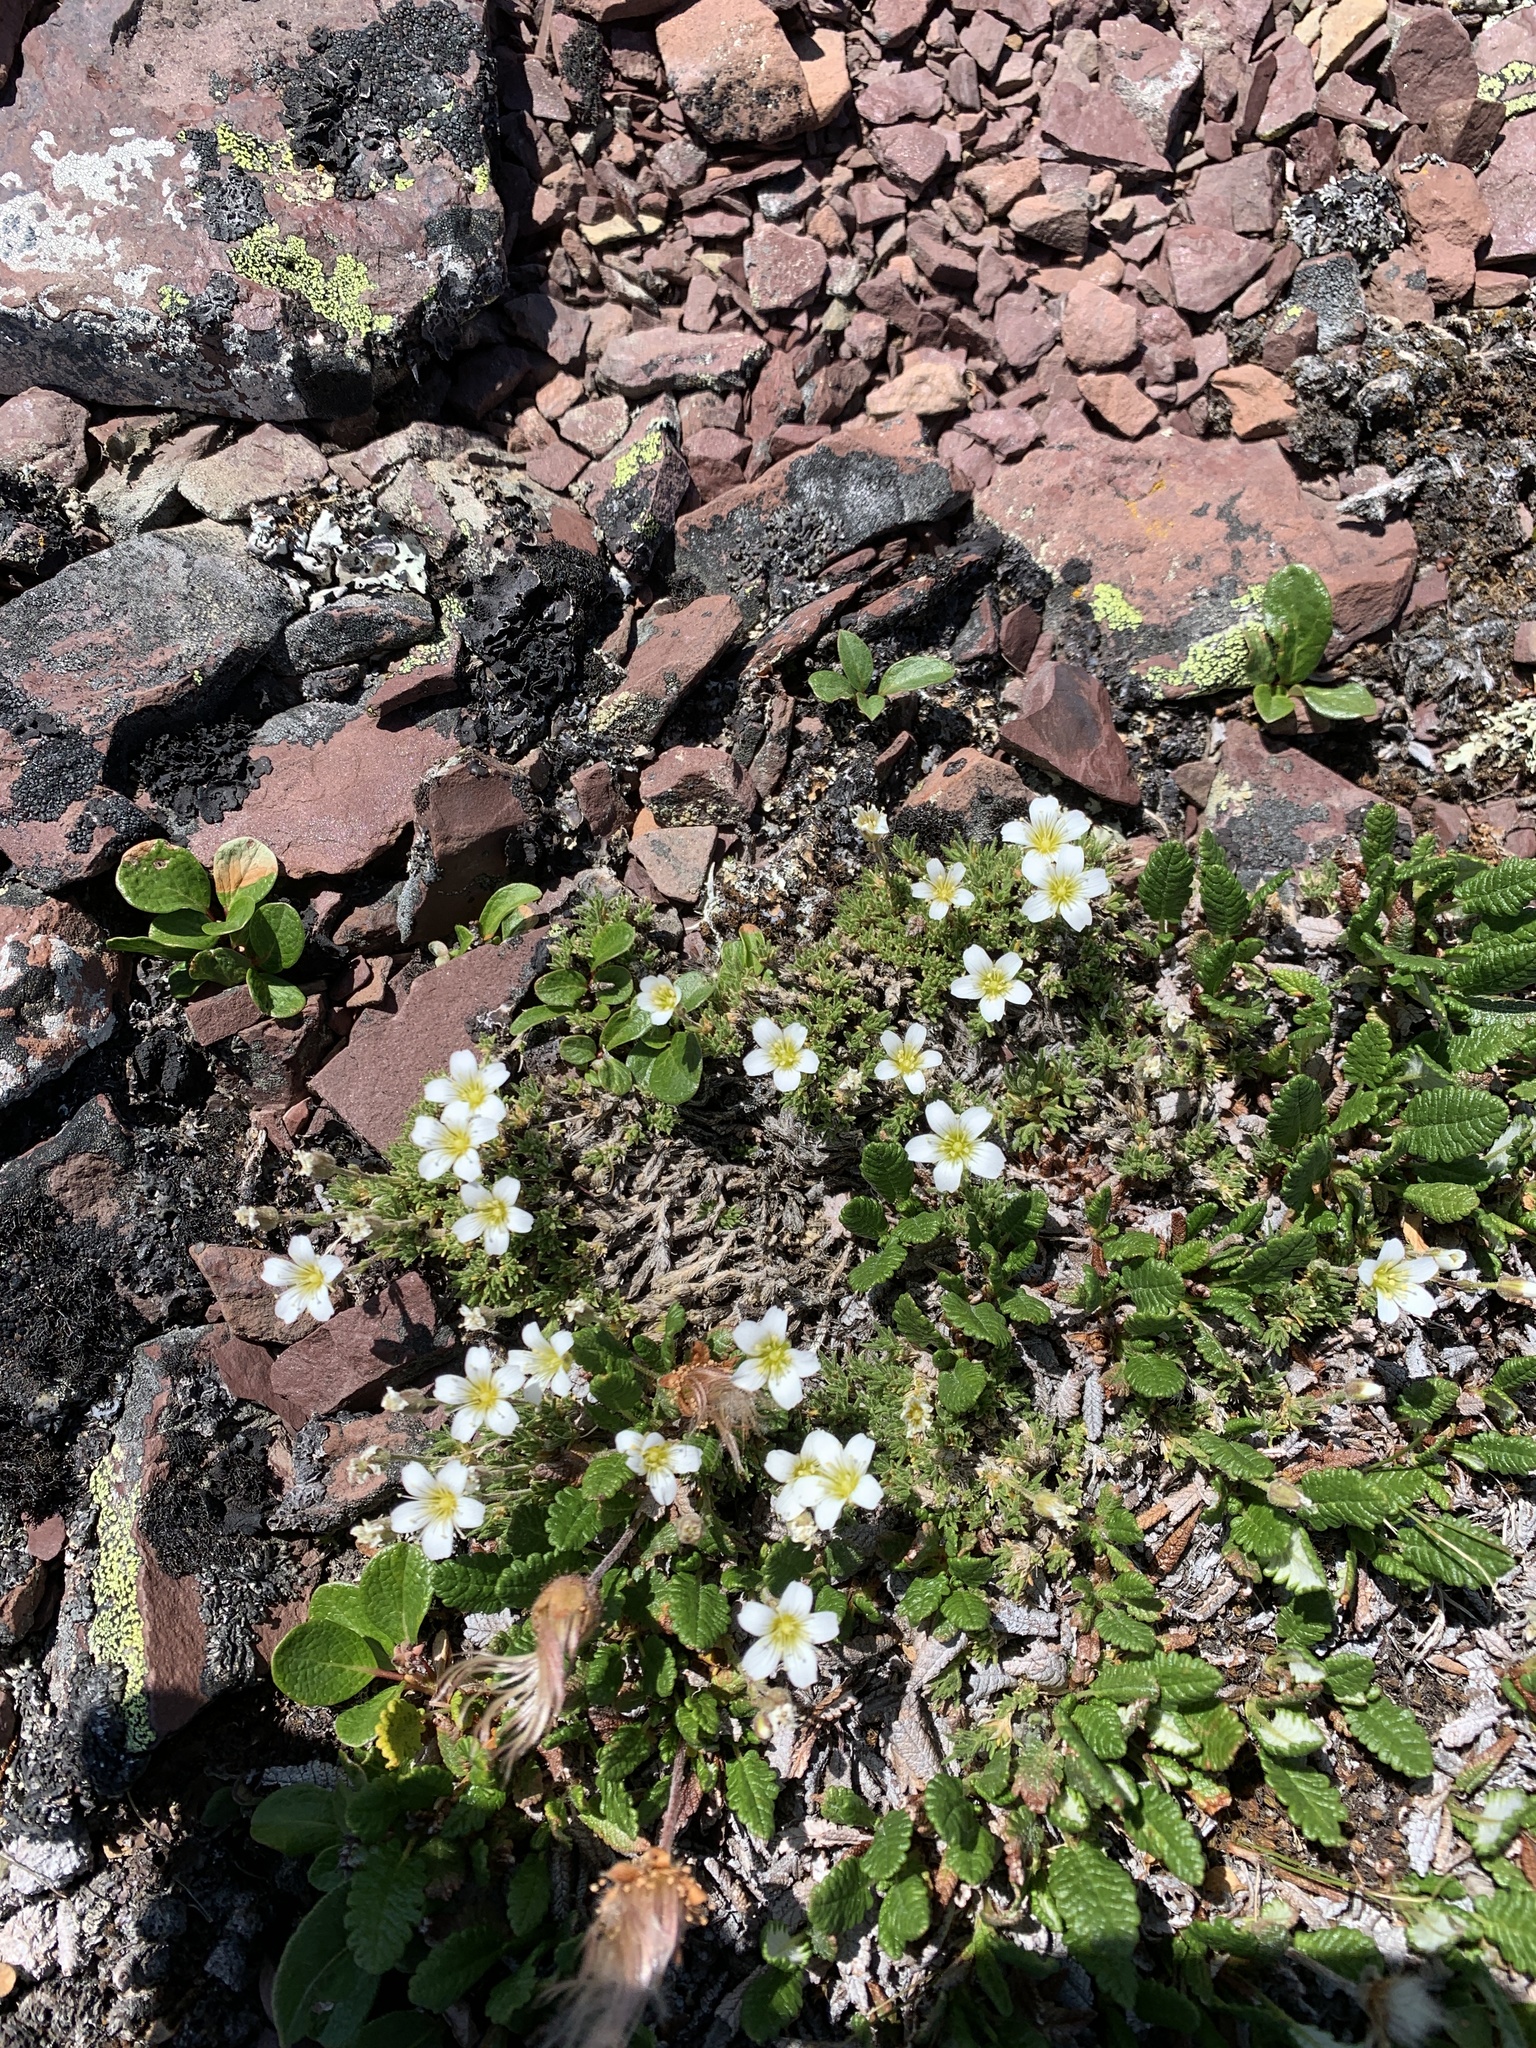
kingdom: Plantae
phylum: Tracheophyta
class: Magnoliopsida
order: Caryophyllales
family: Caryophyllaceae
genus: Cherleria
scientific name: Cherleria obtusiloba
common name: Alpine stitchwort
